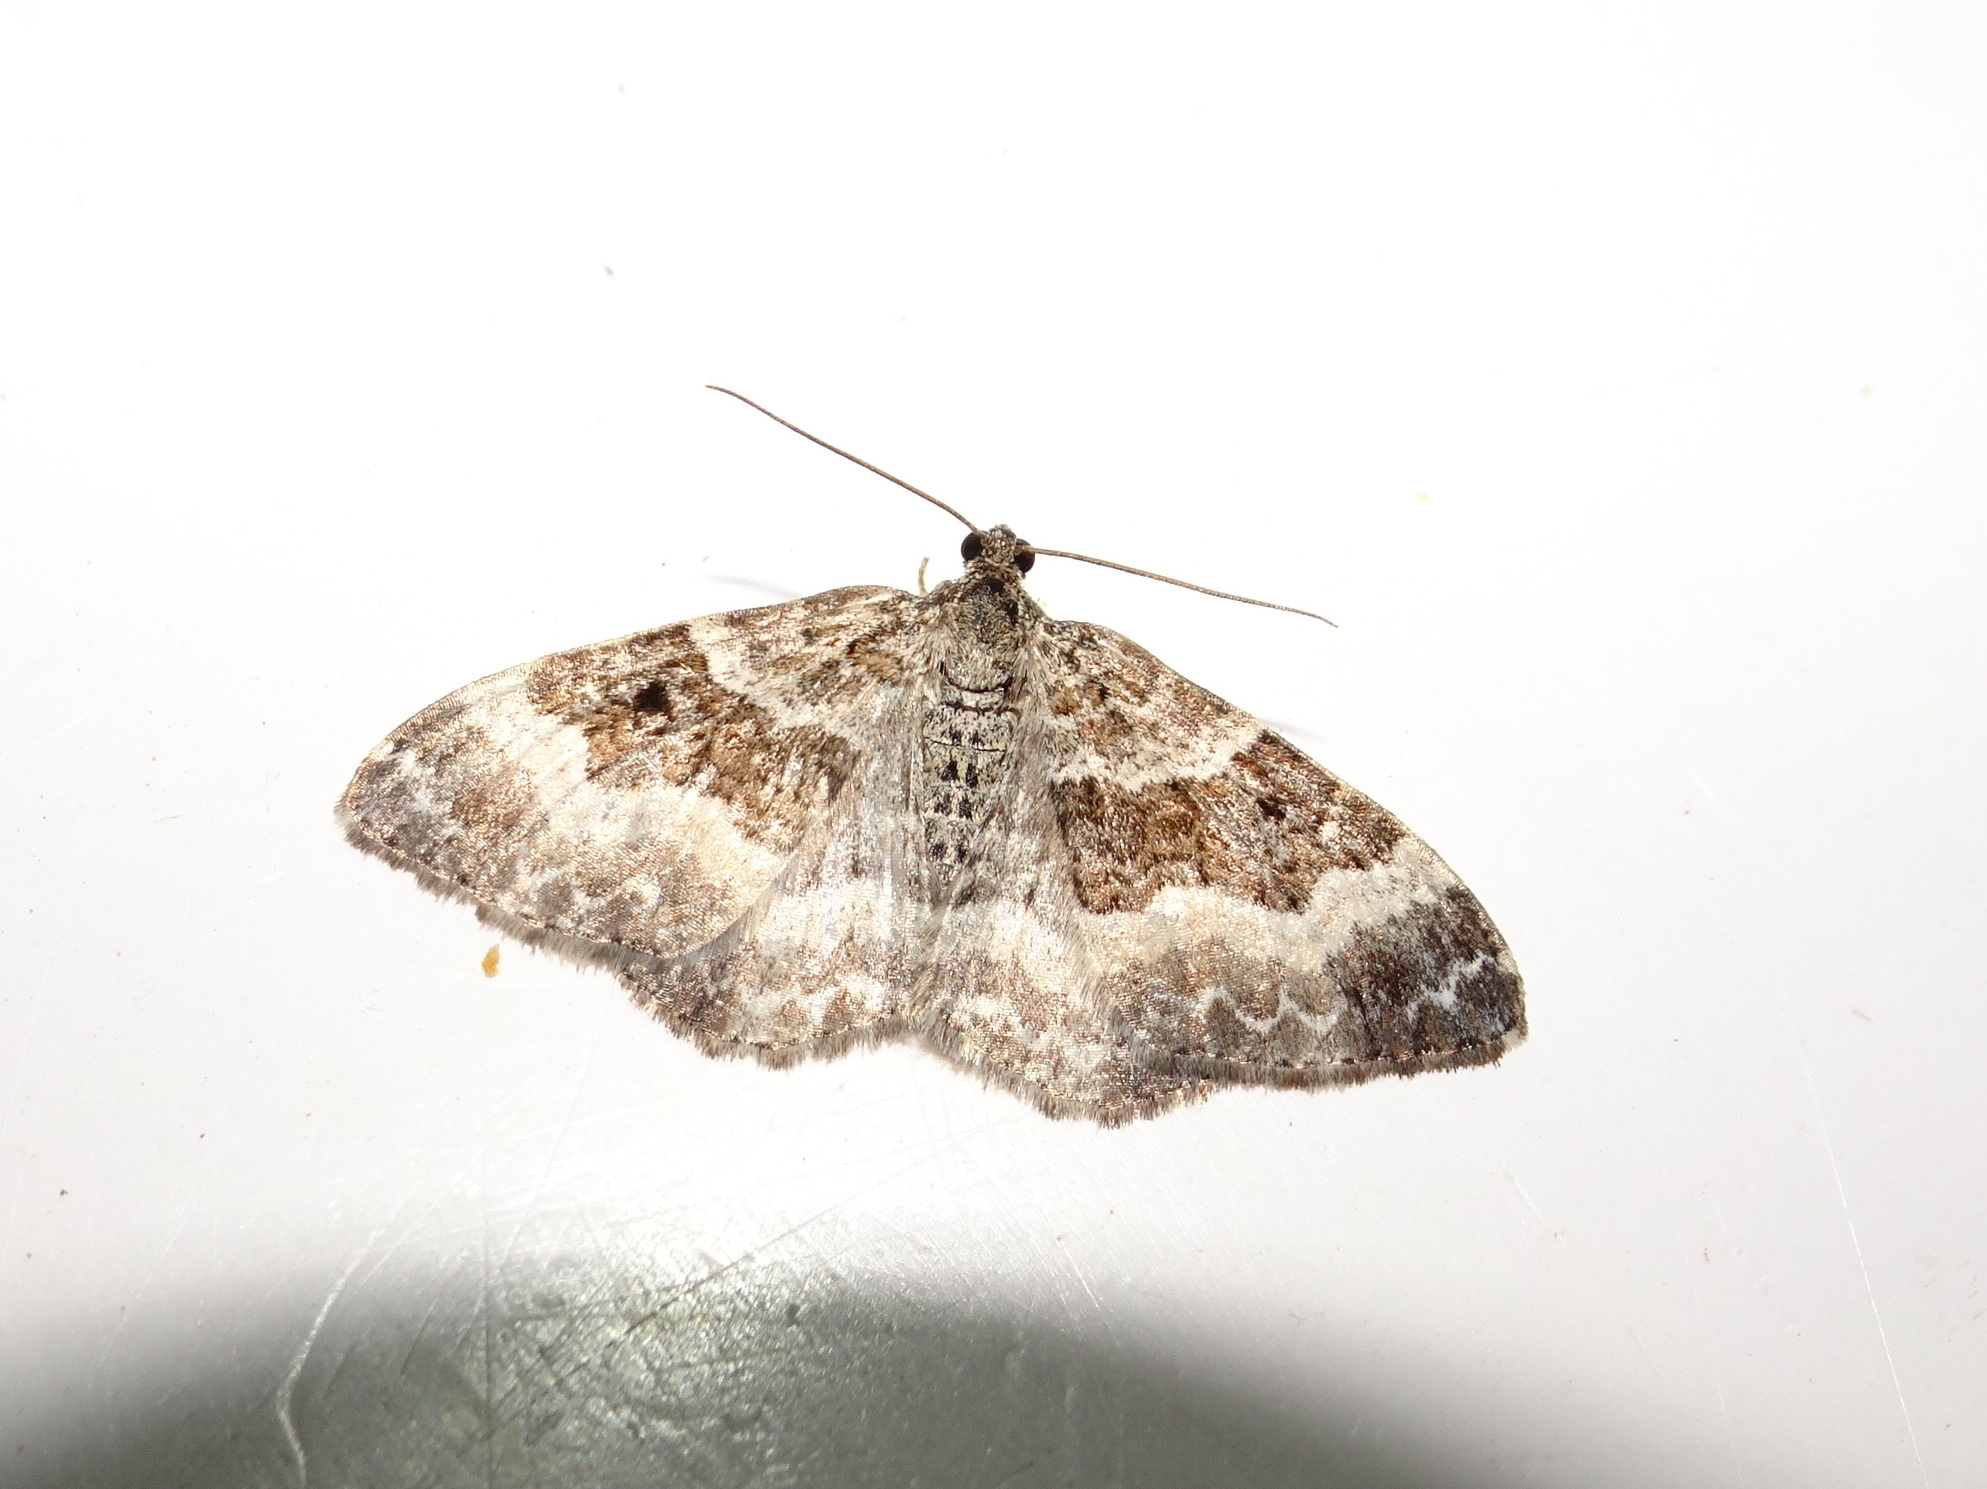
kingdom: Animalia
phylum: Arthropoda
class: Insecta
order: Lepidoptera
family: Geometridae
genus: Epirrhoe
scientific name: Epirrhoe alternata
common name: Common carpet
